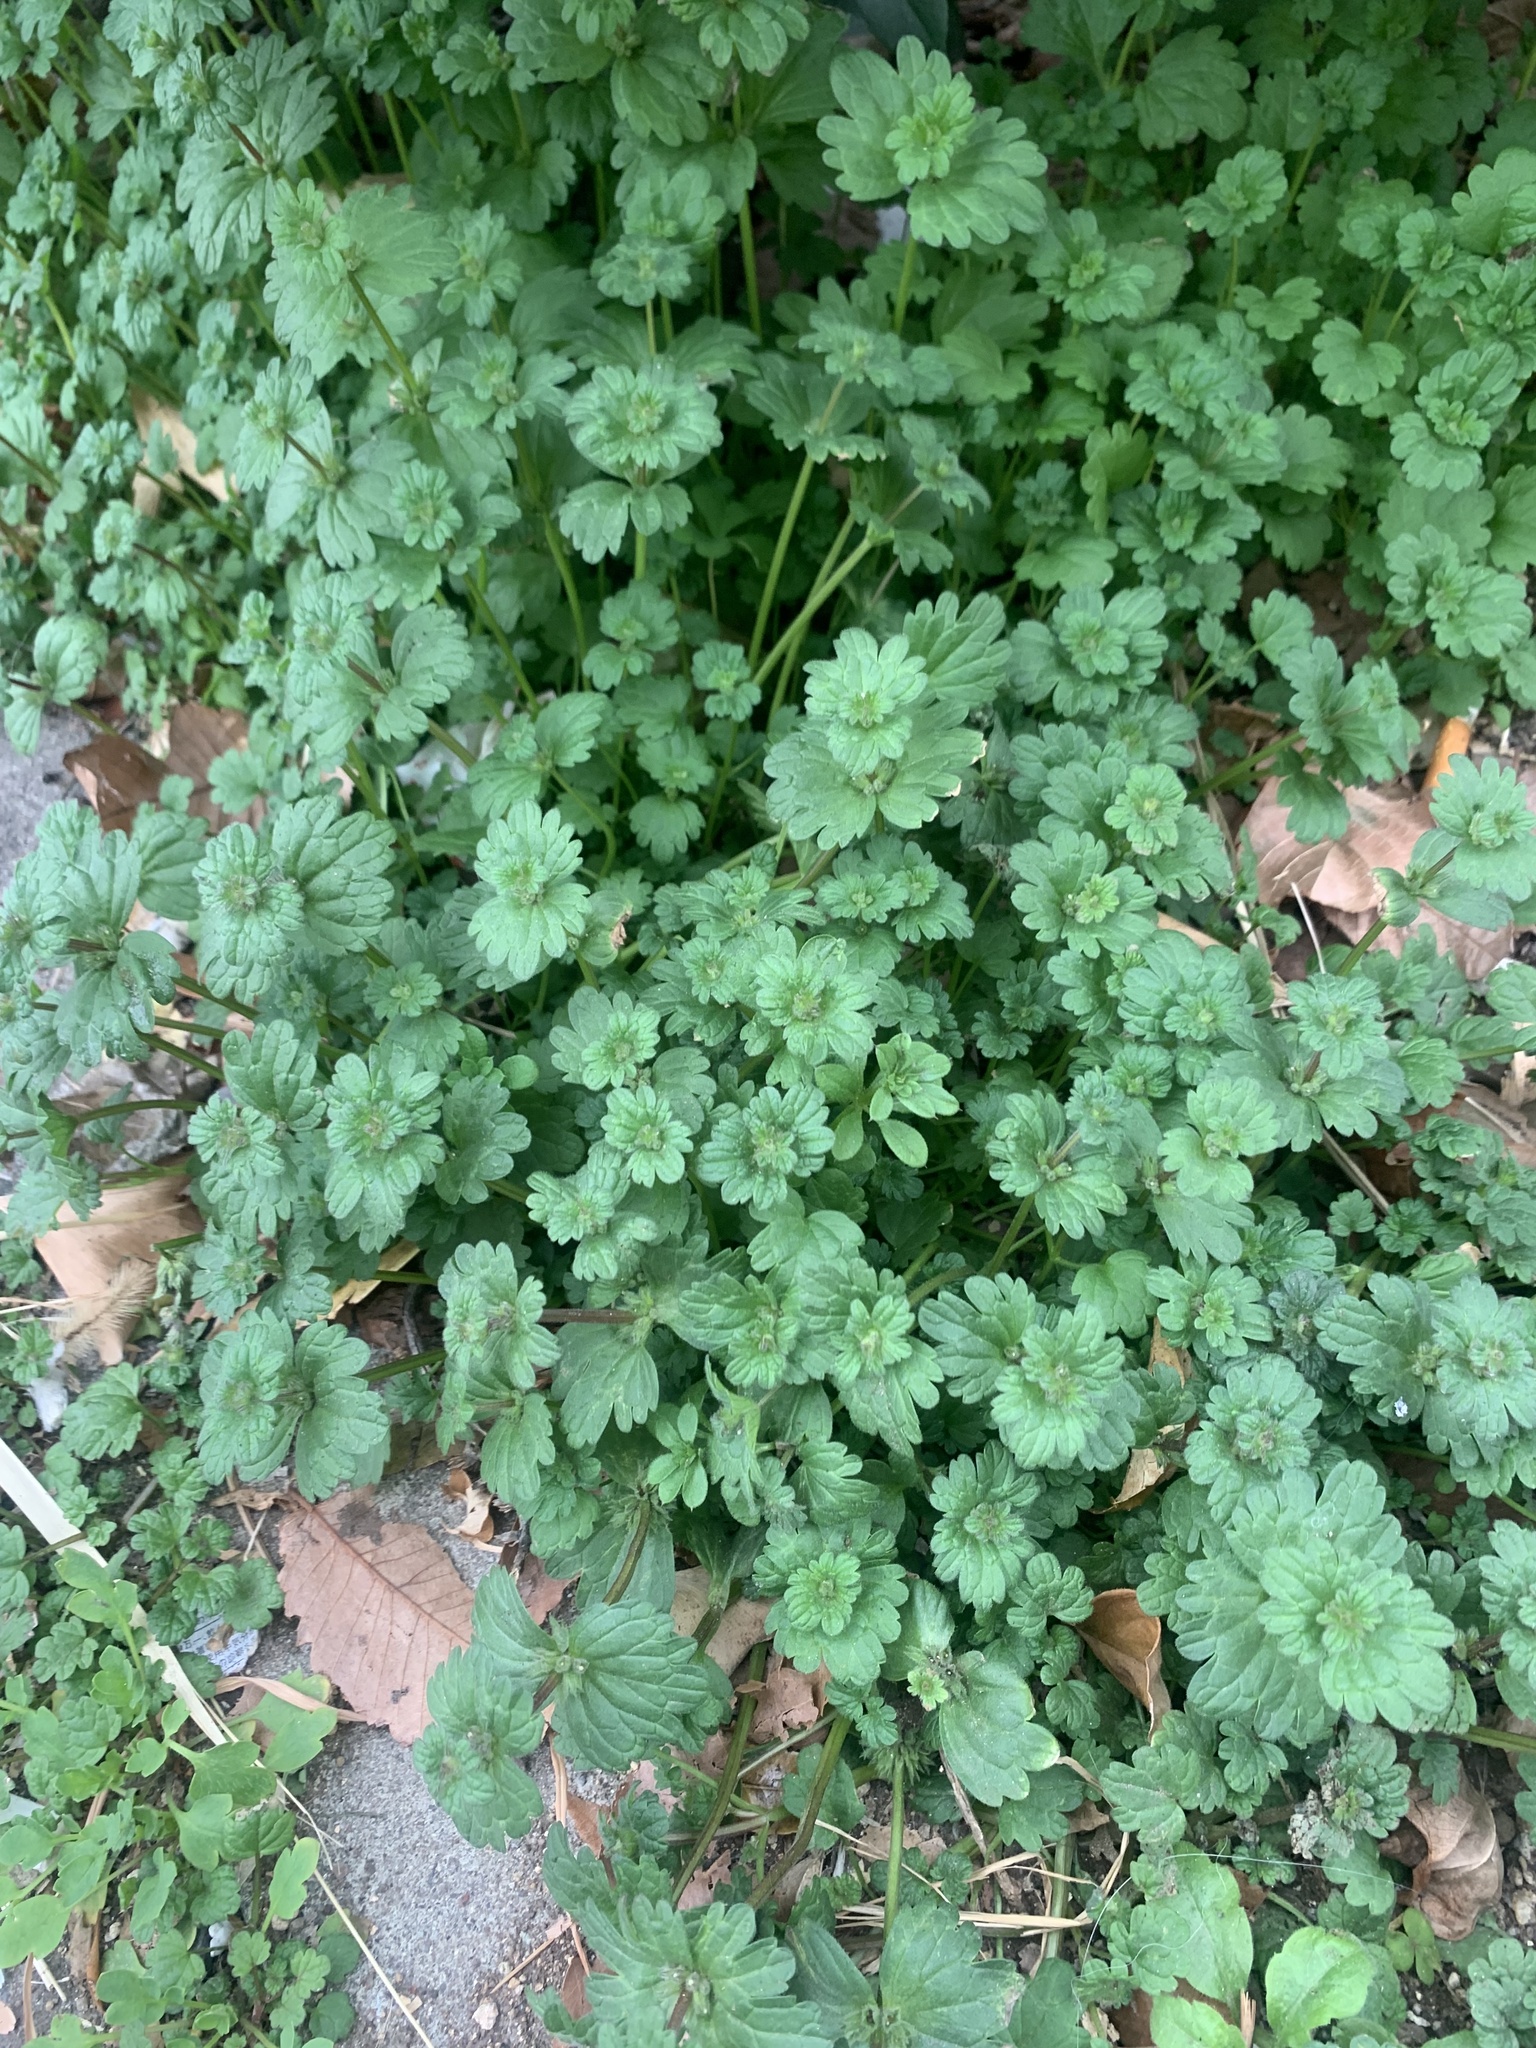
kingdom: Plantae
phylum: Tracheophyta
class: Magnoliopsida
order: Lamiales
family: Lamiaceae
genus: Lamium
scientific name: Lamium amplexicaule
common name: Henbit dead-nettle
